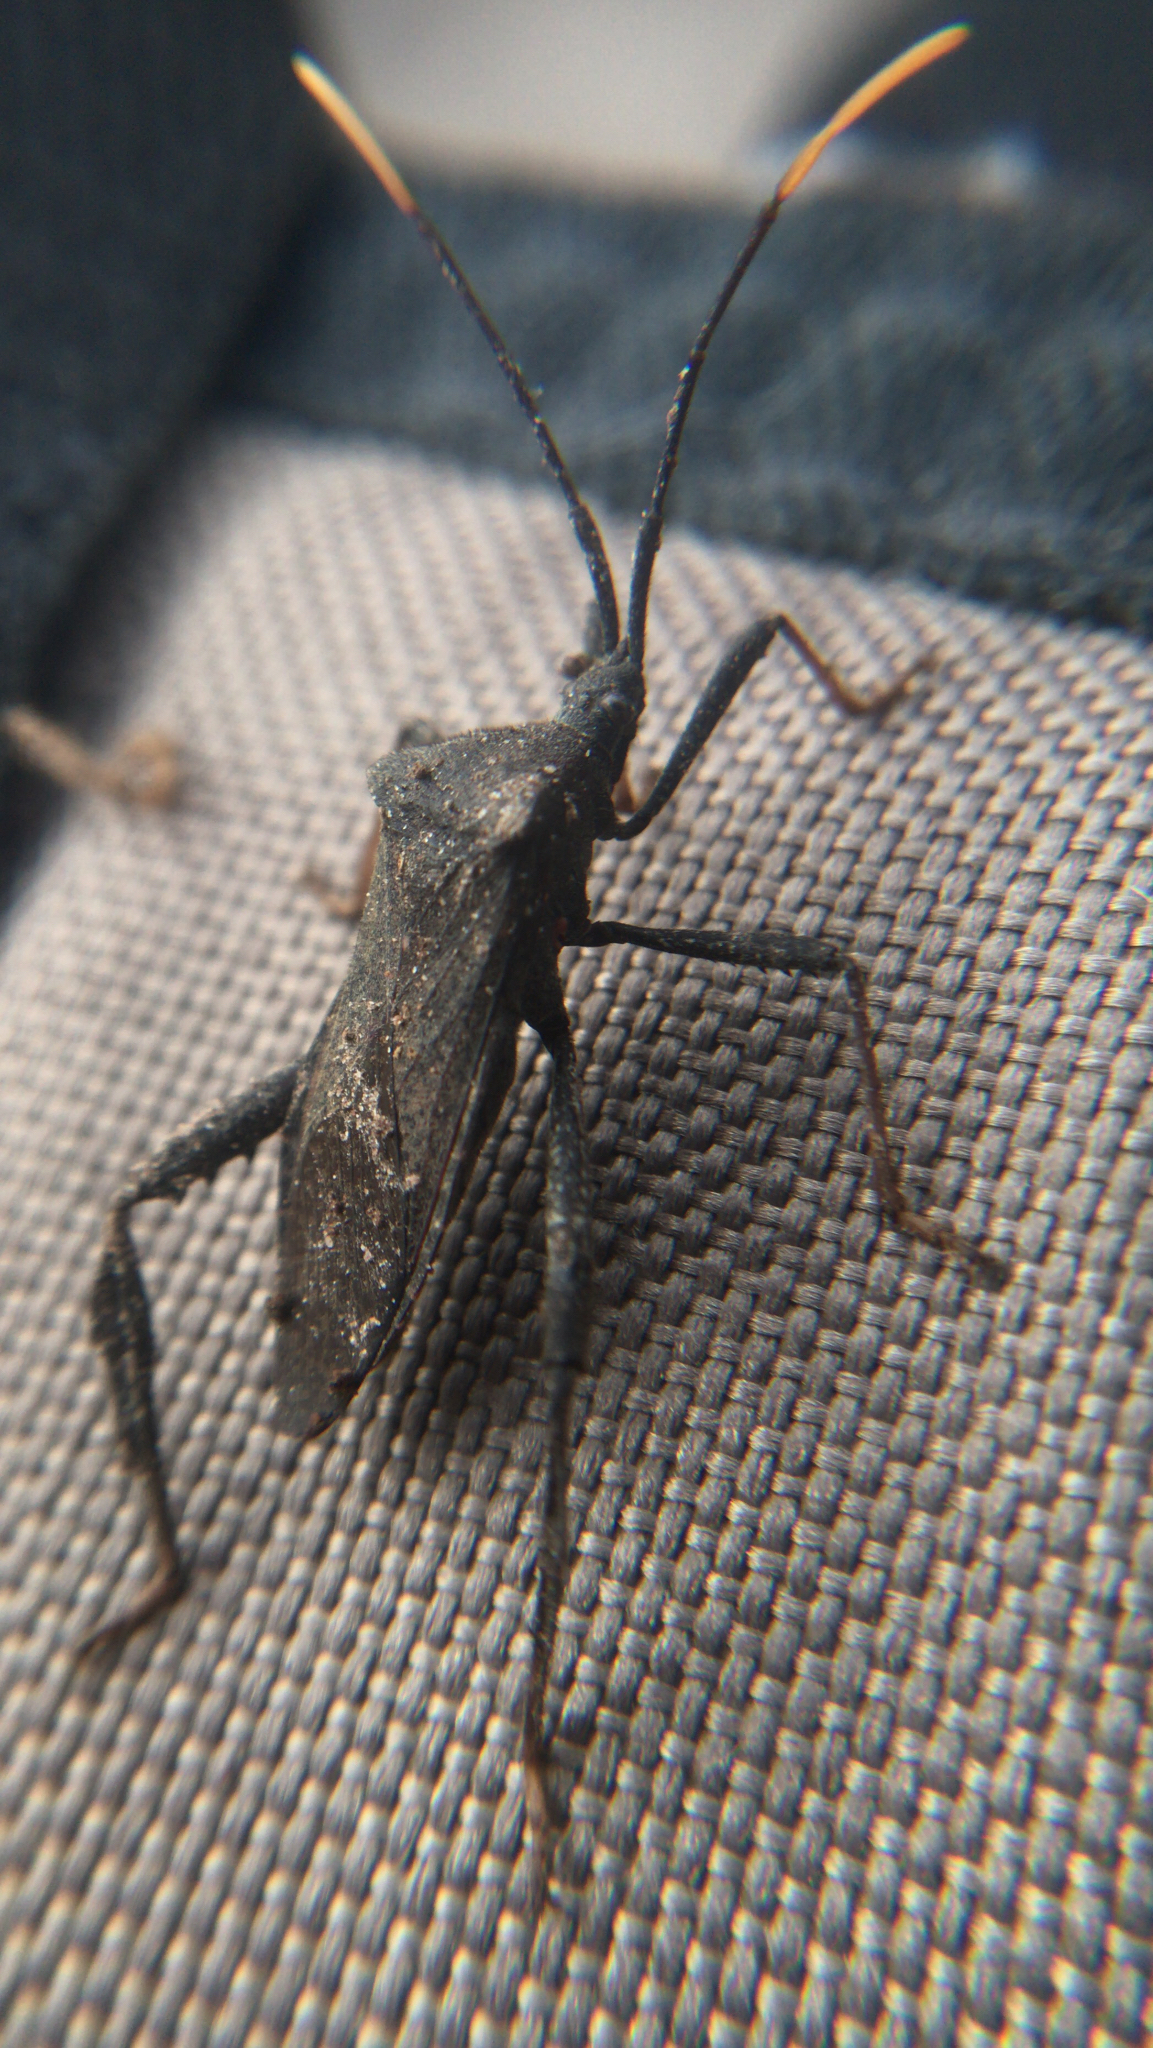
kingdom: Animalia
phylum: Arthropoda
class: Insecta
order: Hemiptera
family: Coreidae
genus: Acanthocephala
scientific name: Acanthocephala terminalis
